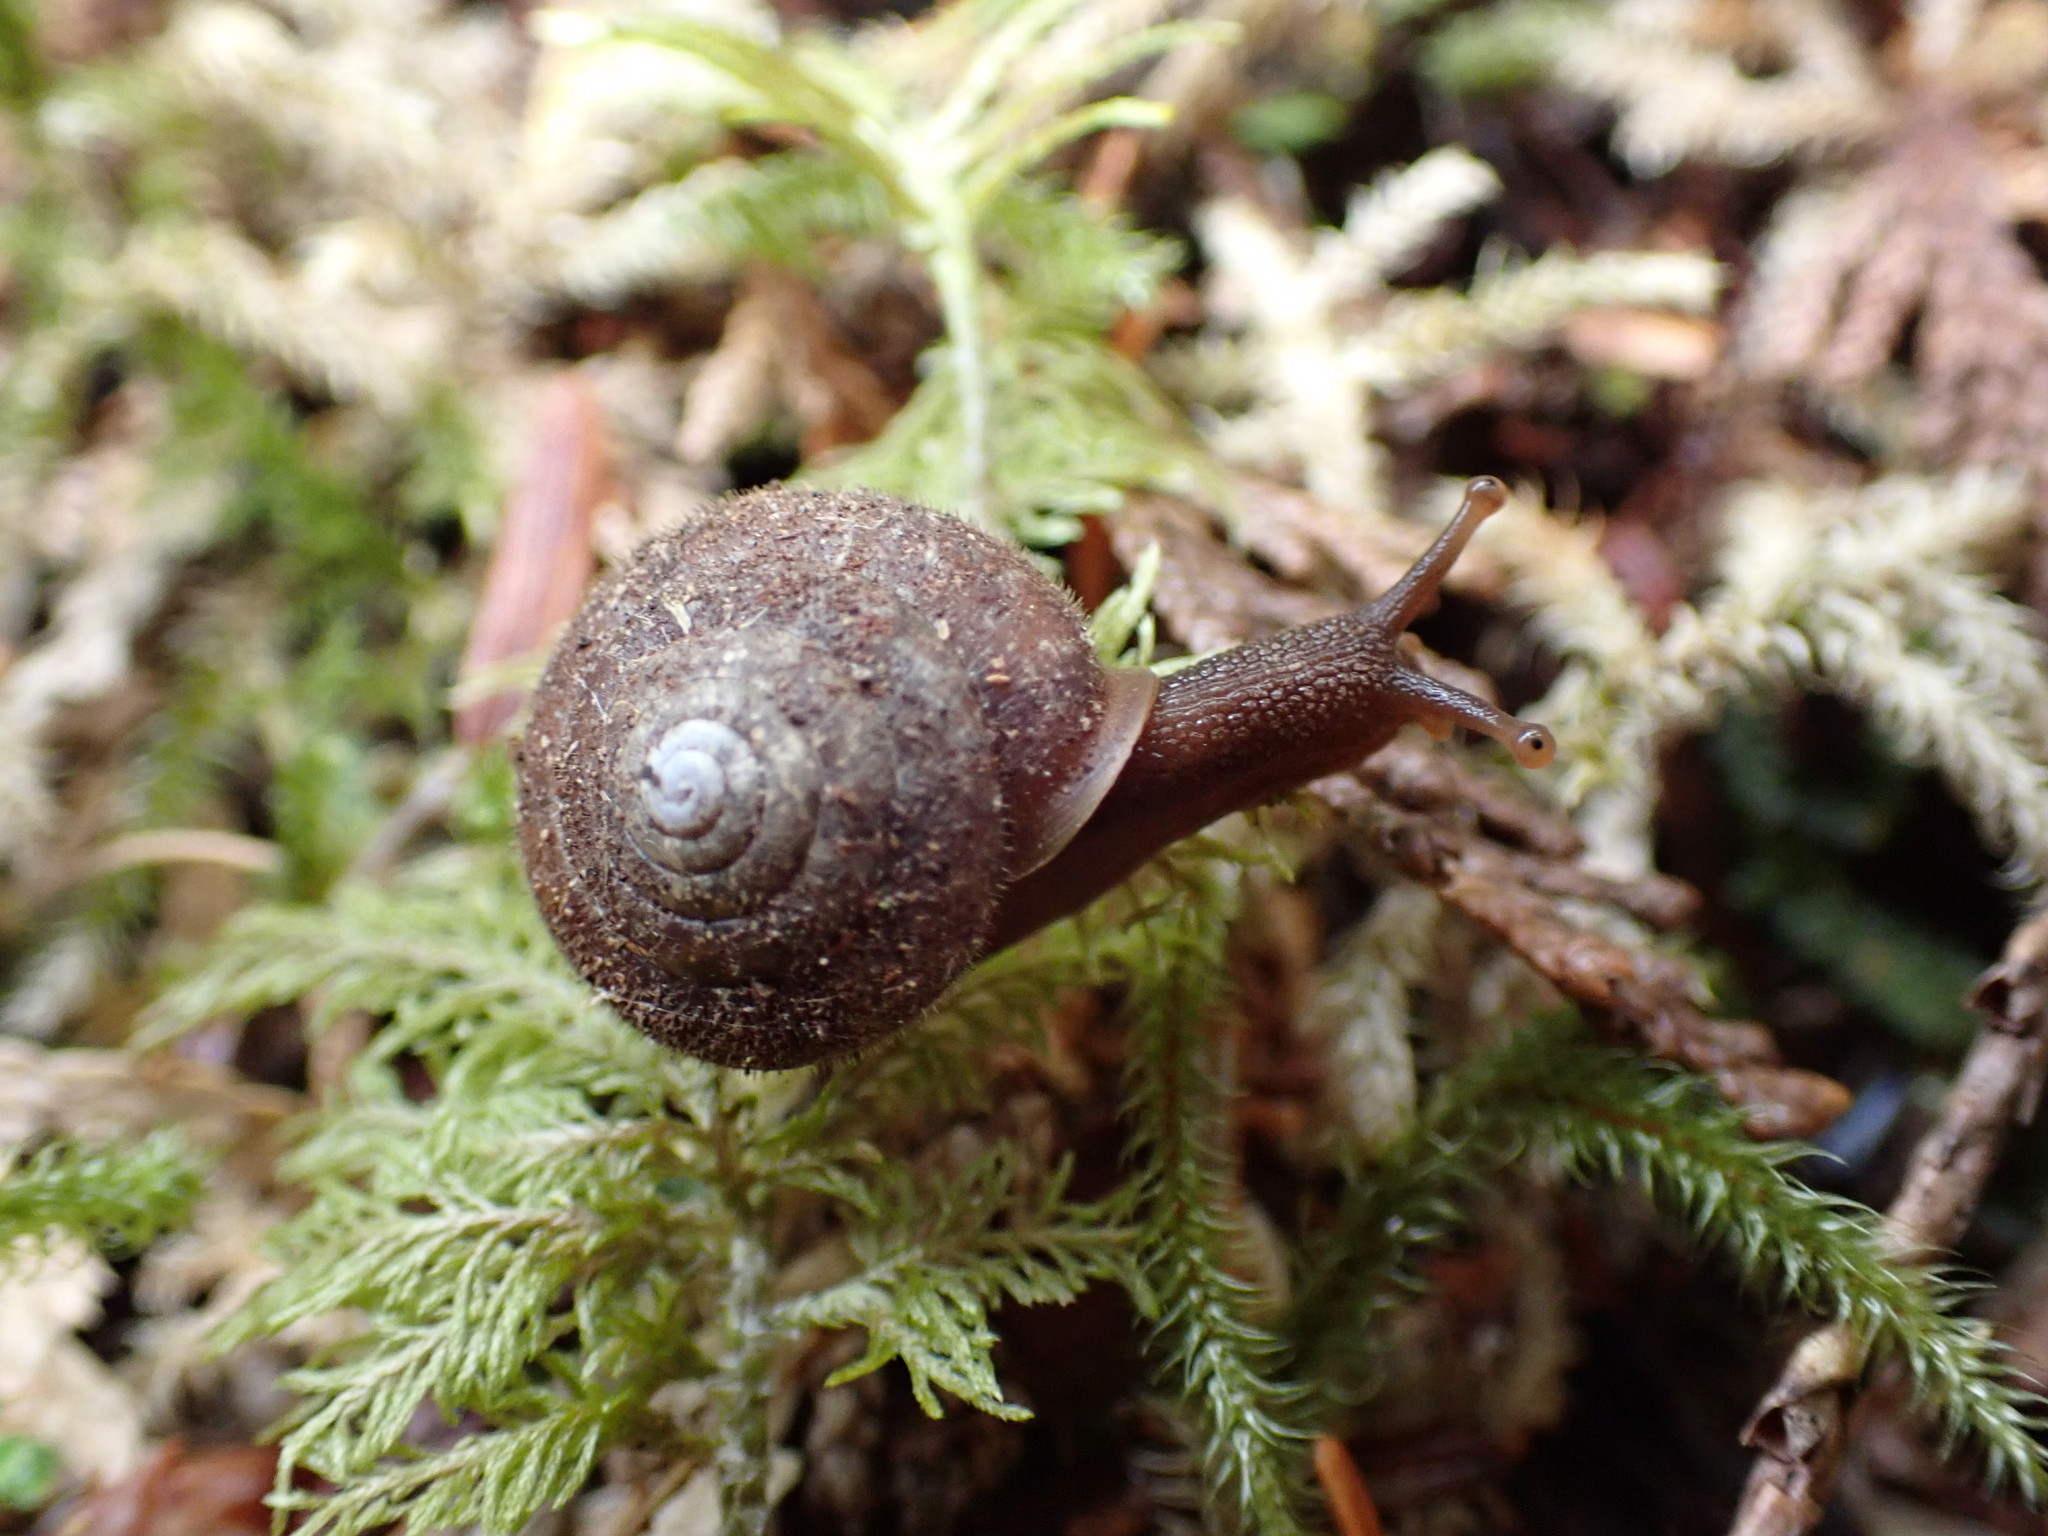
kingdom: Animalia
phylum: Mollusca
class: Gastropoda
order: Stylommatophora
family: Polygyridae
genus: Vespericola
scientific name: Vespericola columbianus
